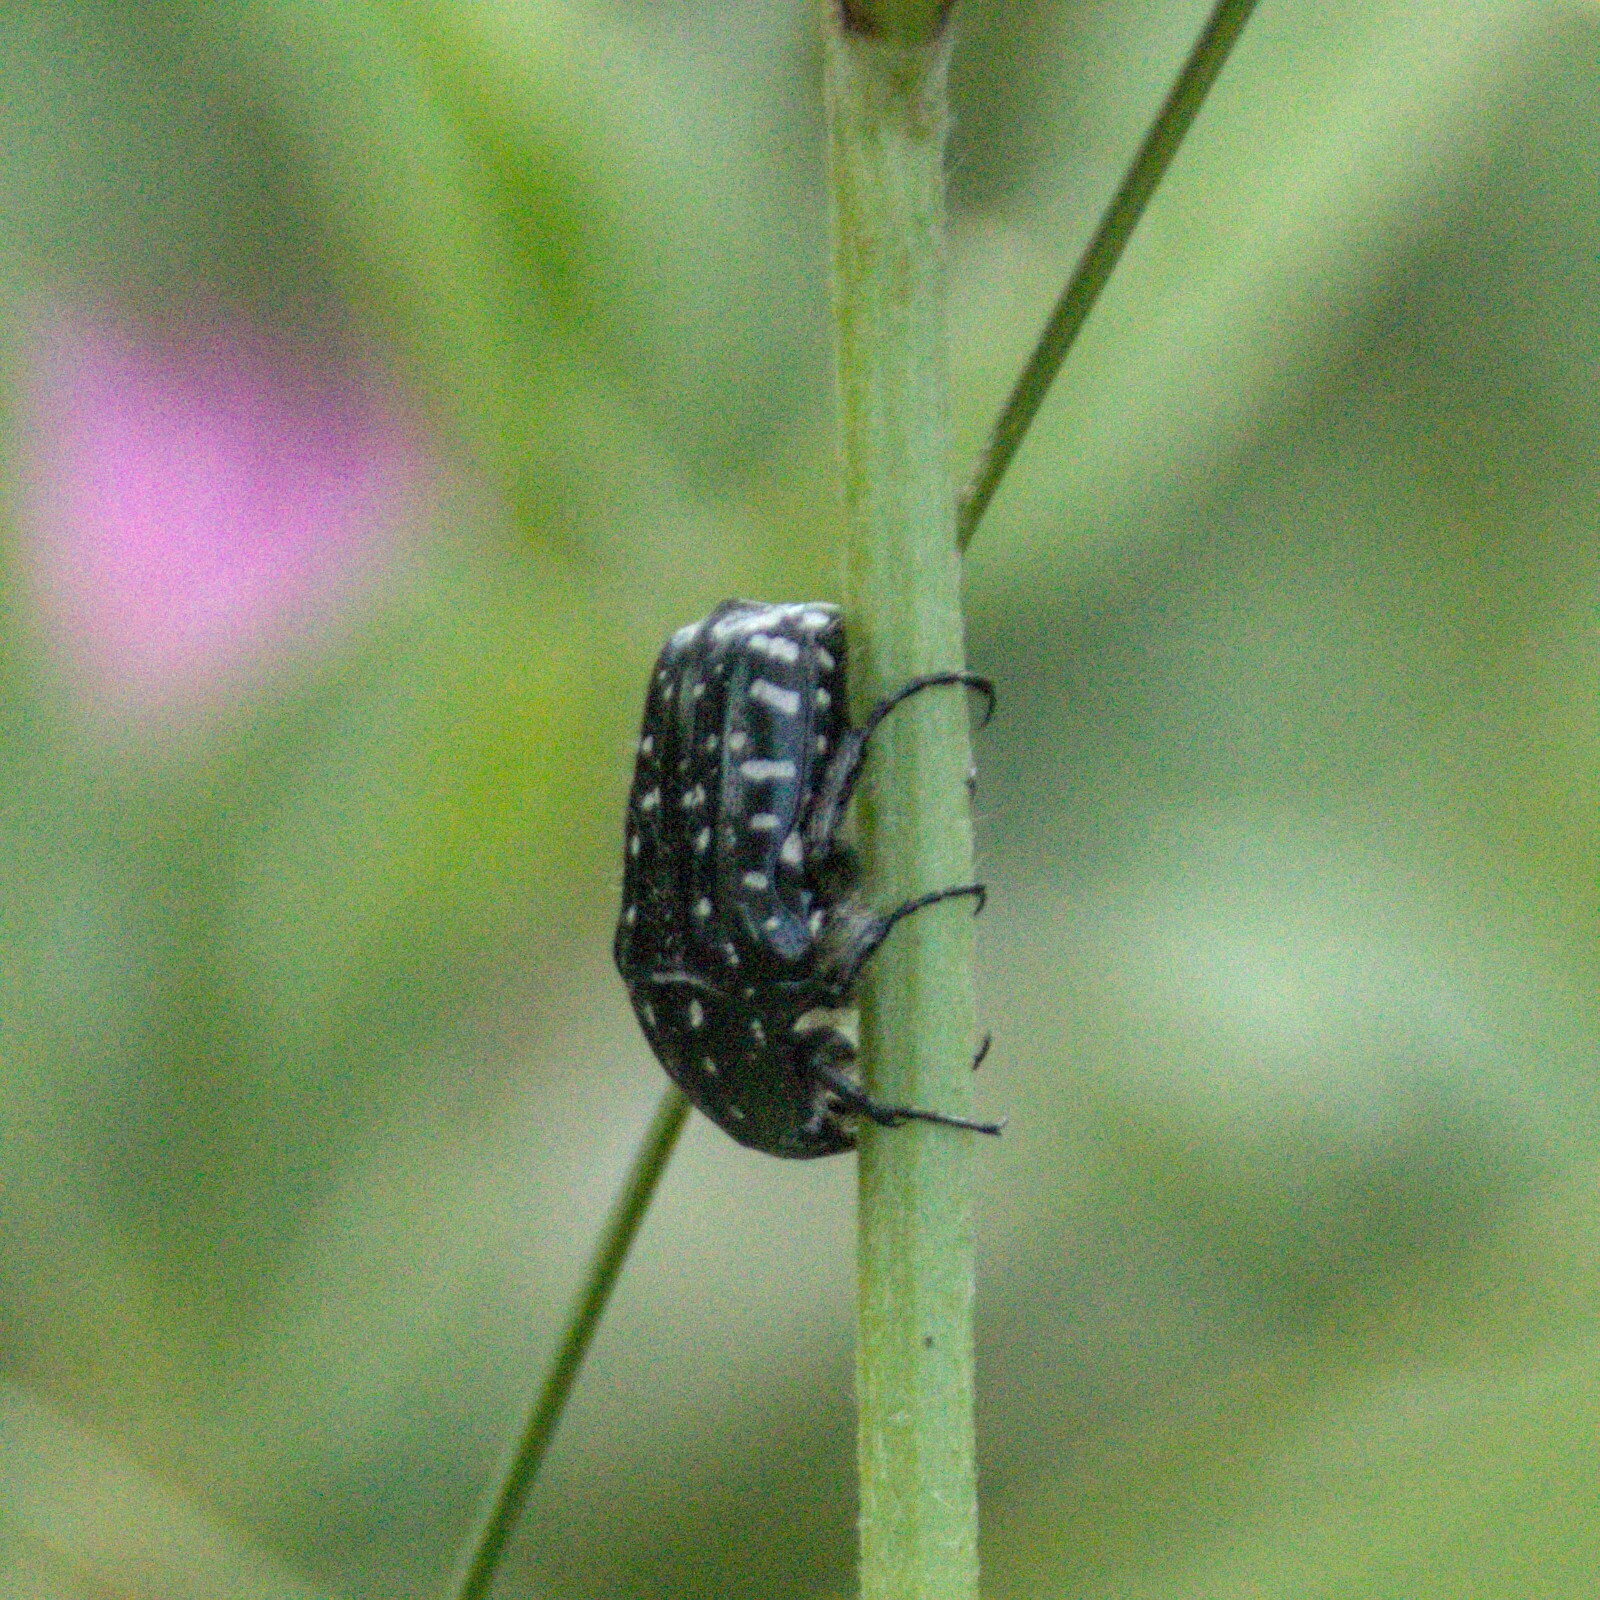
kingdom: Animalia
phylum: Arthropoda
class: Insecta
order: Coleoptera
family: Scarabaeidae
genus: Oxythyrea
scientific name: Oxythyrea funesta
